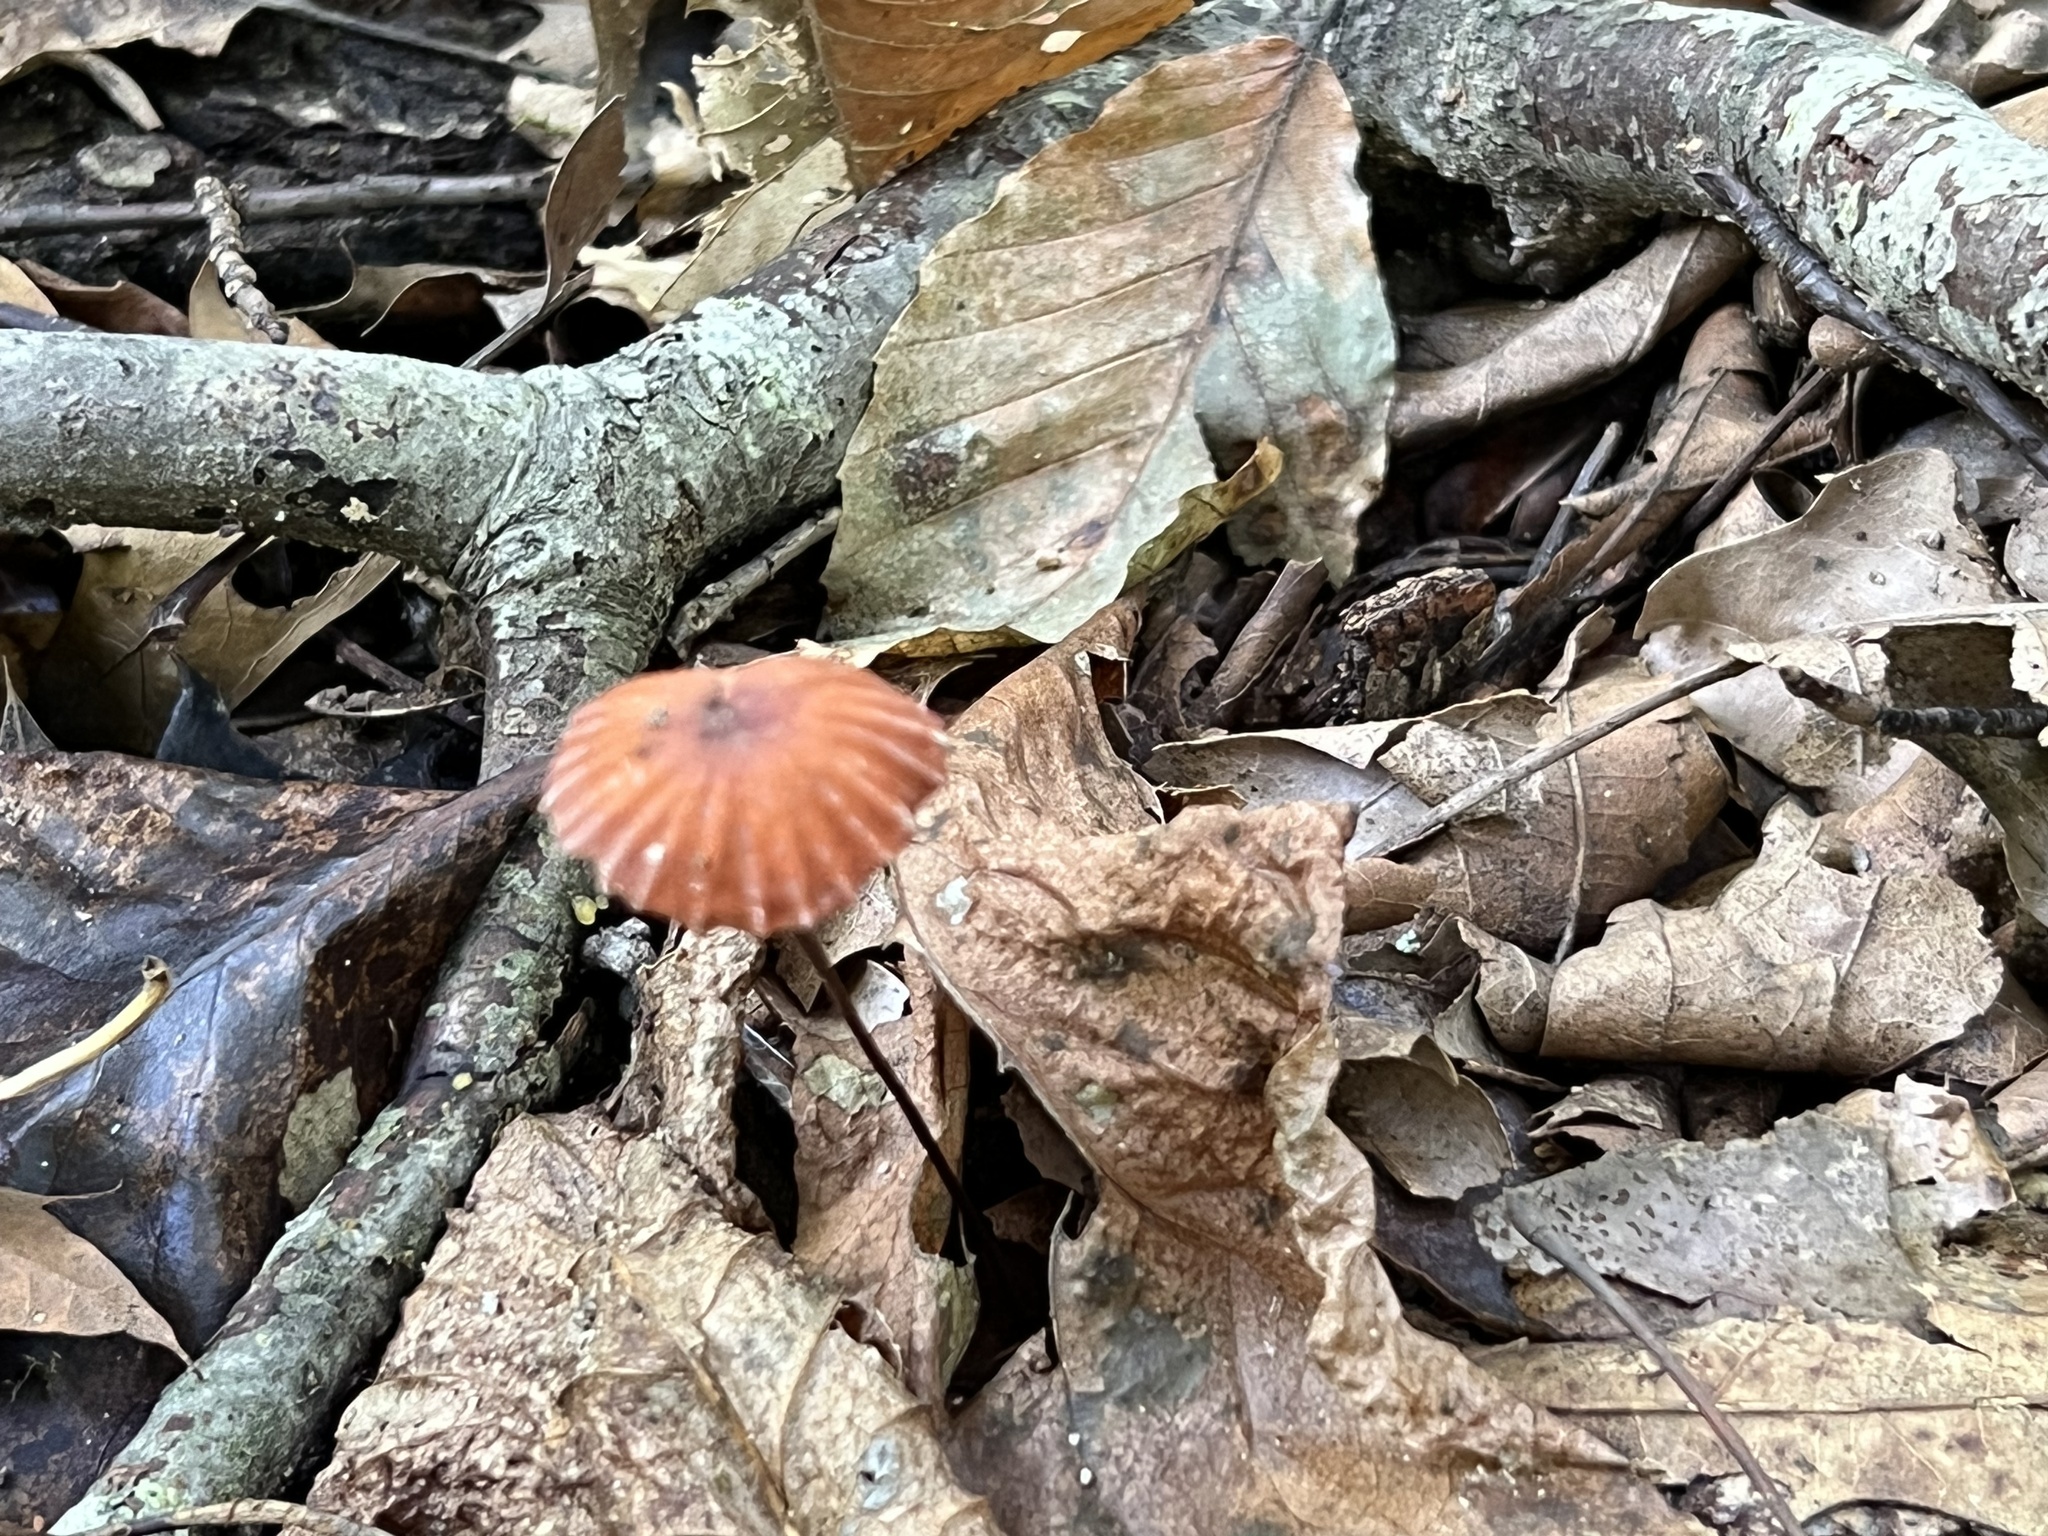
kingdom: Fungi
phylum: Basidiomycota
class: Agaricomycetes
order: Agaricales
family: Marasmiaceae
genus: Marasmius
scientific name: Marasmius siccus
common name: Orange pinwheel
